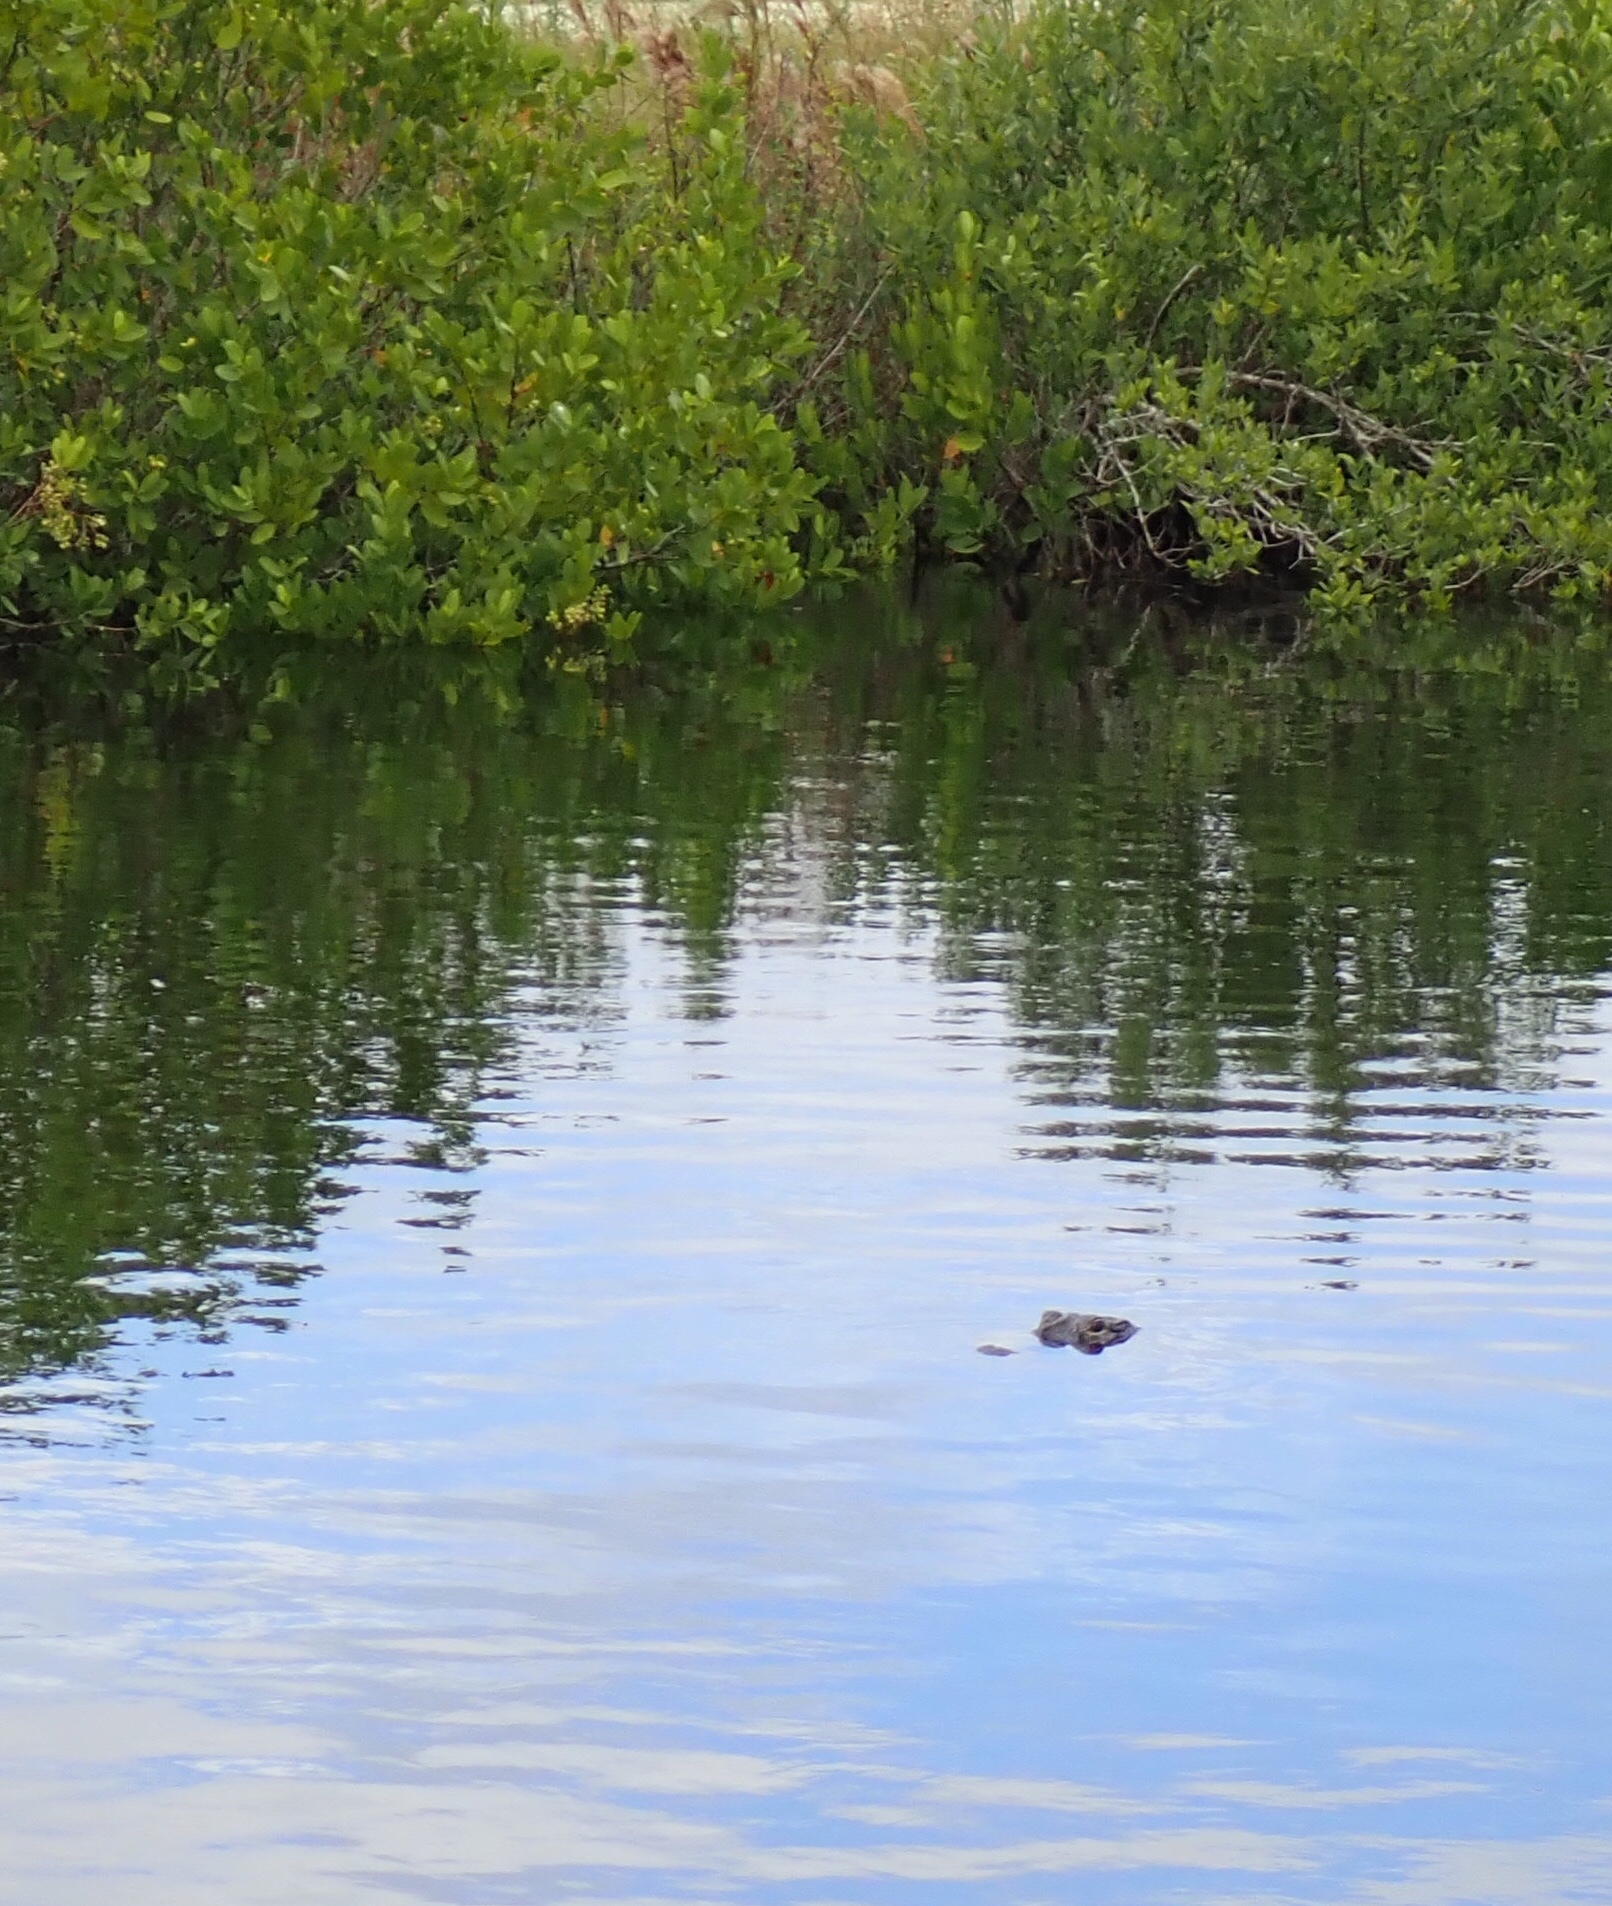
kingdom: Animalia
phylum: Chordata
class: Crocodylia
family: Alligatoridae
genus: Alligator
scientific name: Alligator mississippiensis
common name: American alligator
